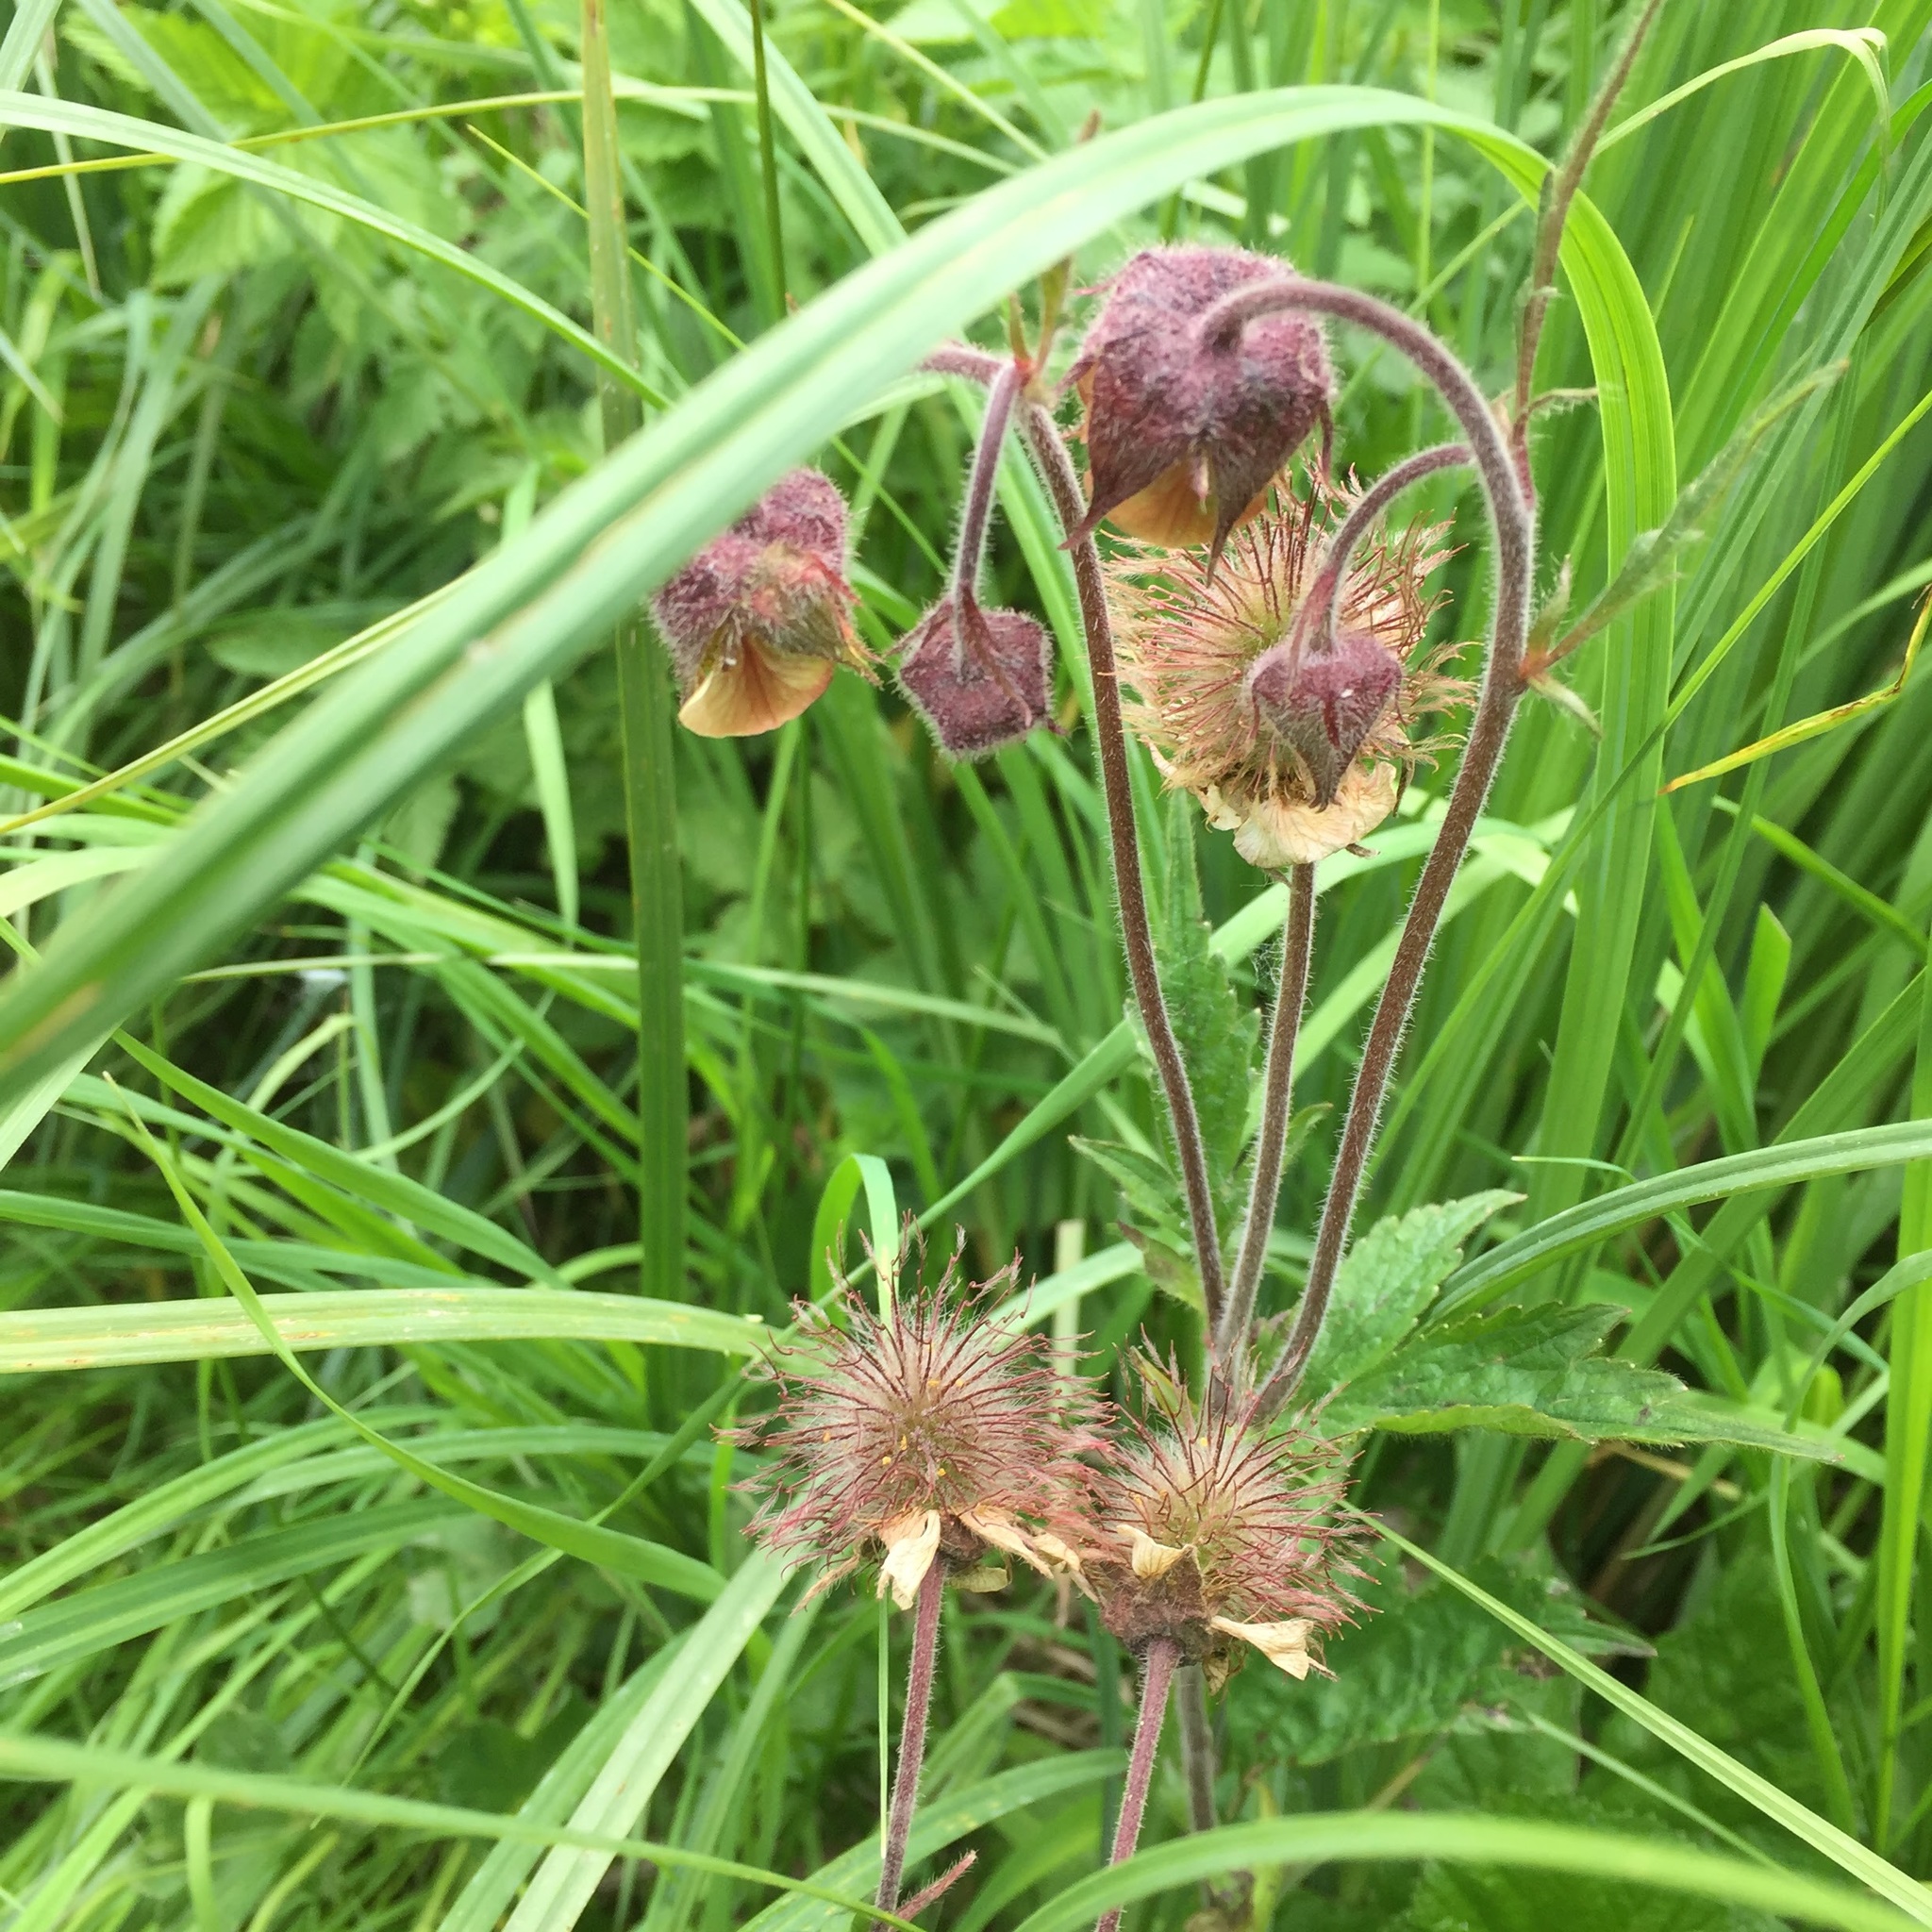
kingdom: Plantae
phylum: Tracheophyta
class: Magnoliopsida
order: Rosales
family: Rosaceae
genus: Geum
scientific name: Geum rivale
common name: Water avens
